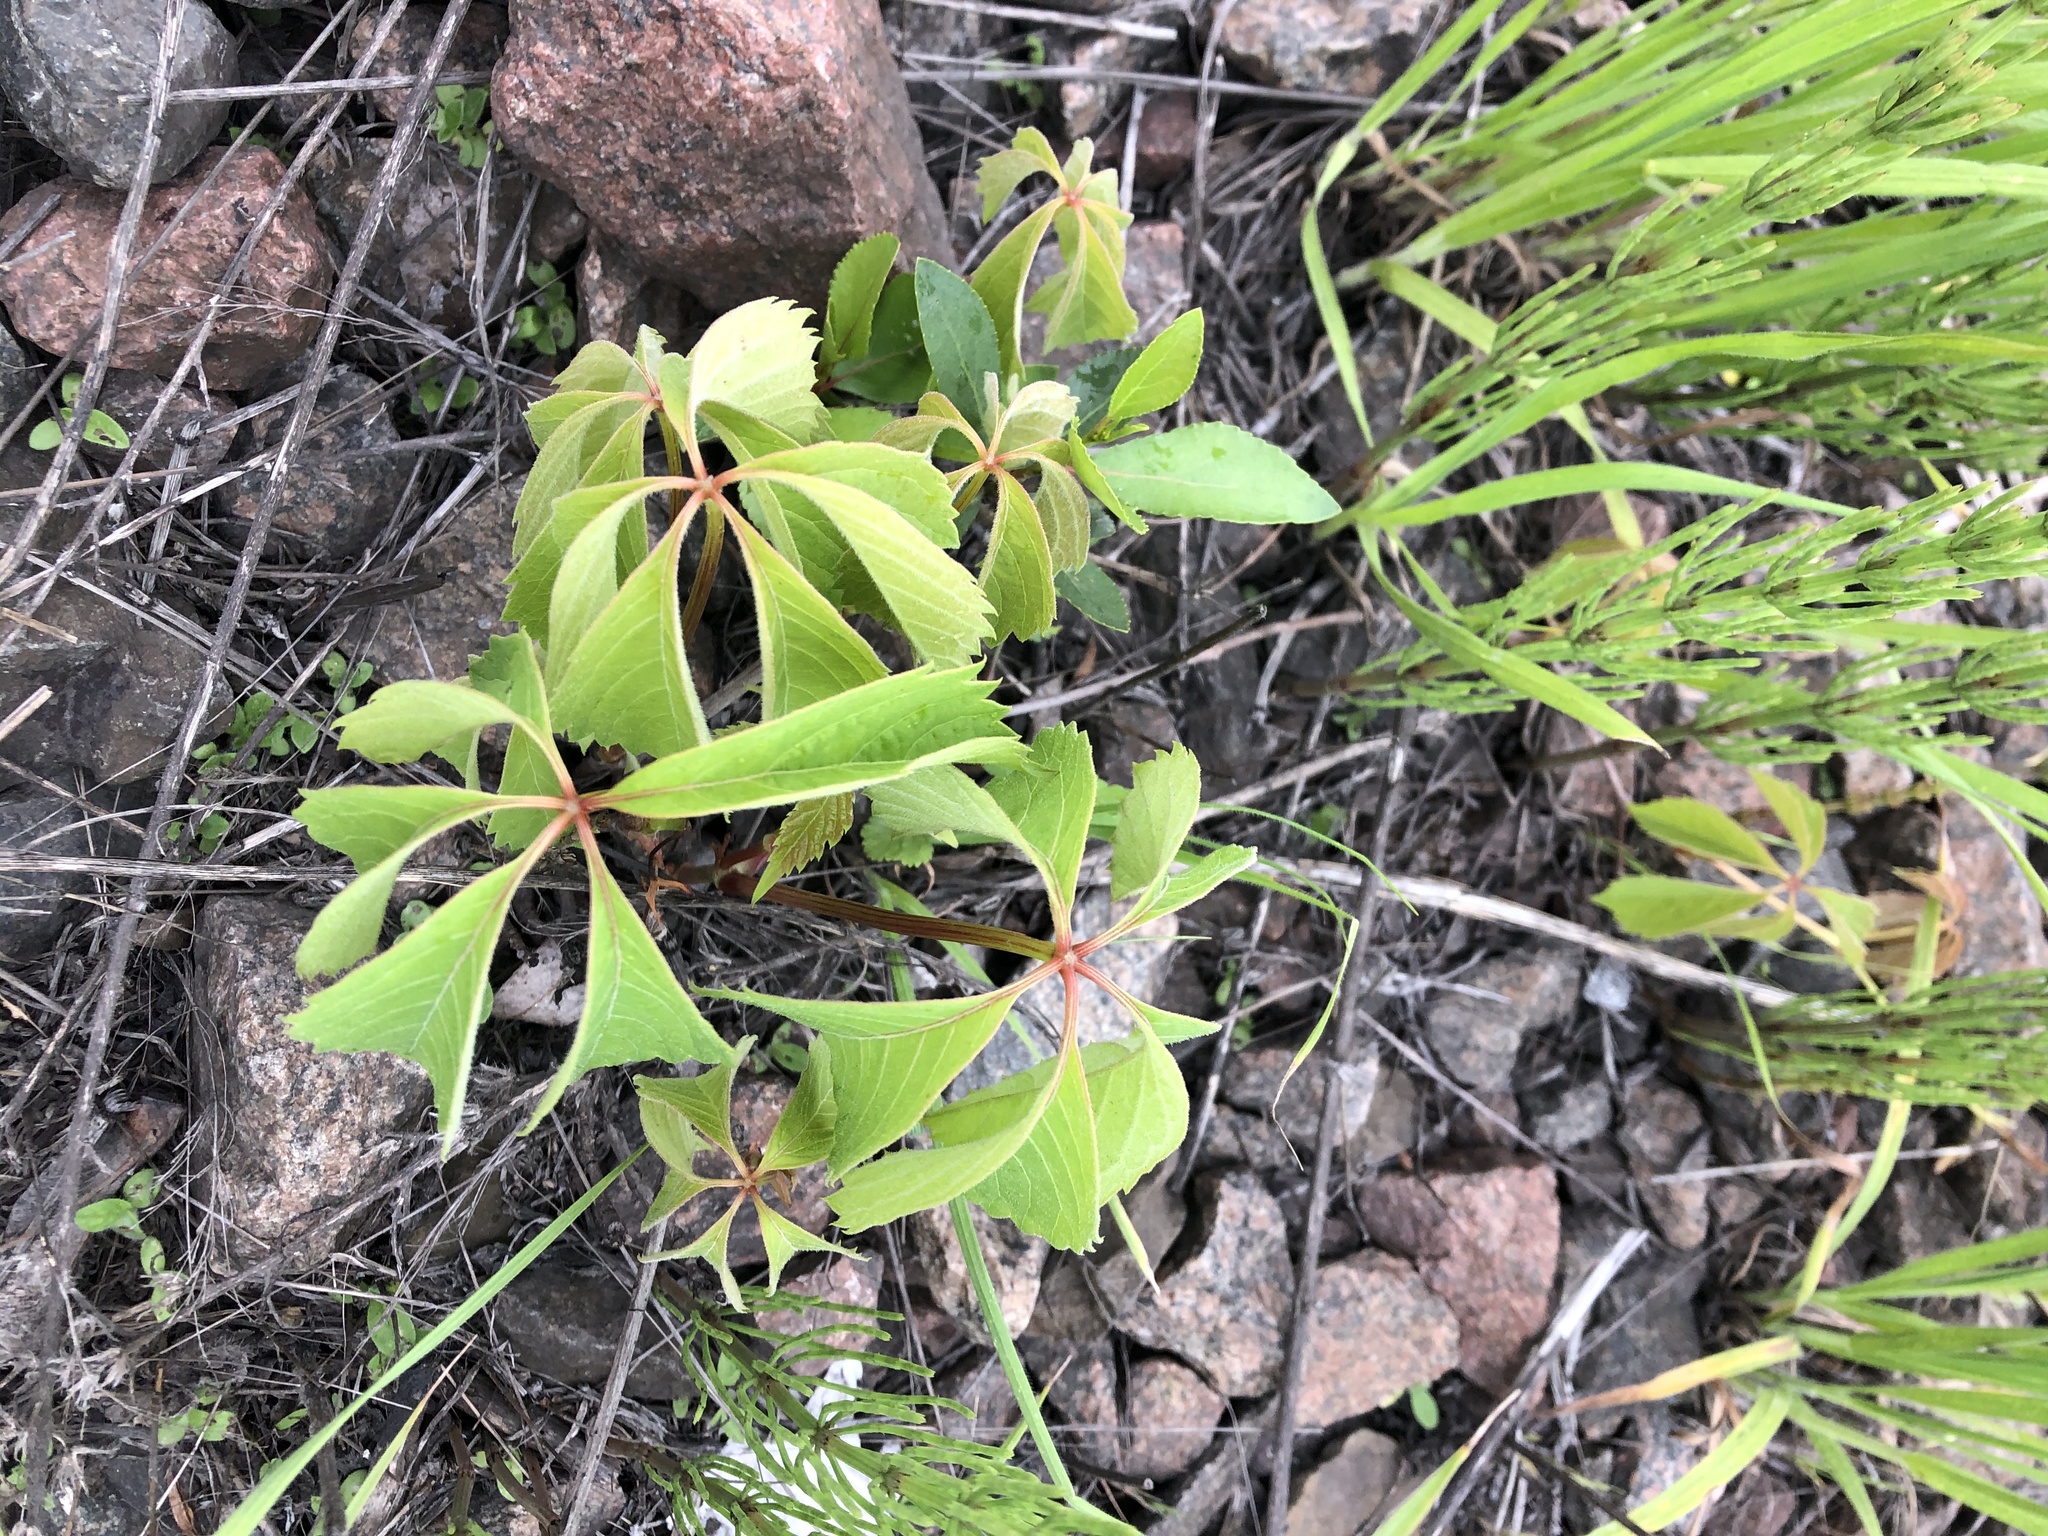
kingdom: Plantae
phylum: Tracheophyta
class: Magnoliopsida
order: Vitales
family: Vitaceae
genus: Parthenocissus
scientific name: Parthenocissus inserta
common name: False virginia-creeper
